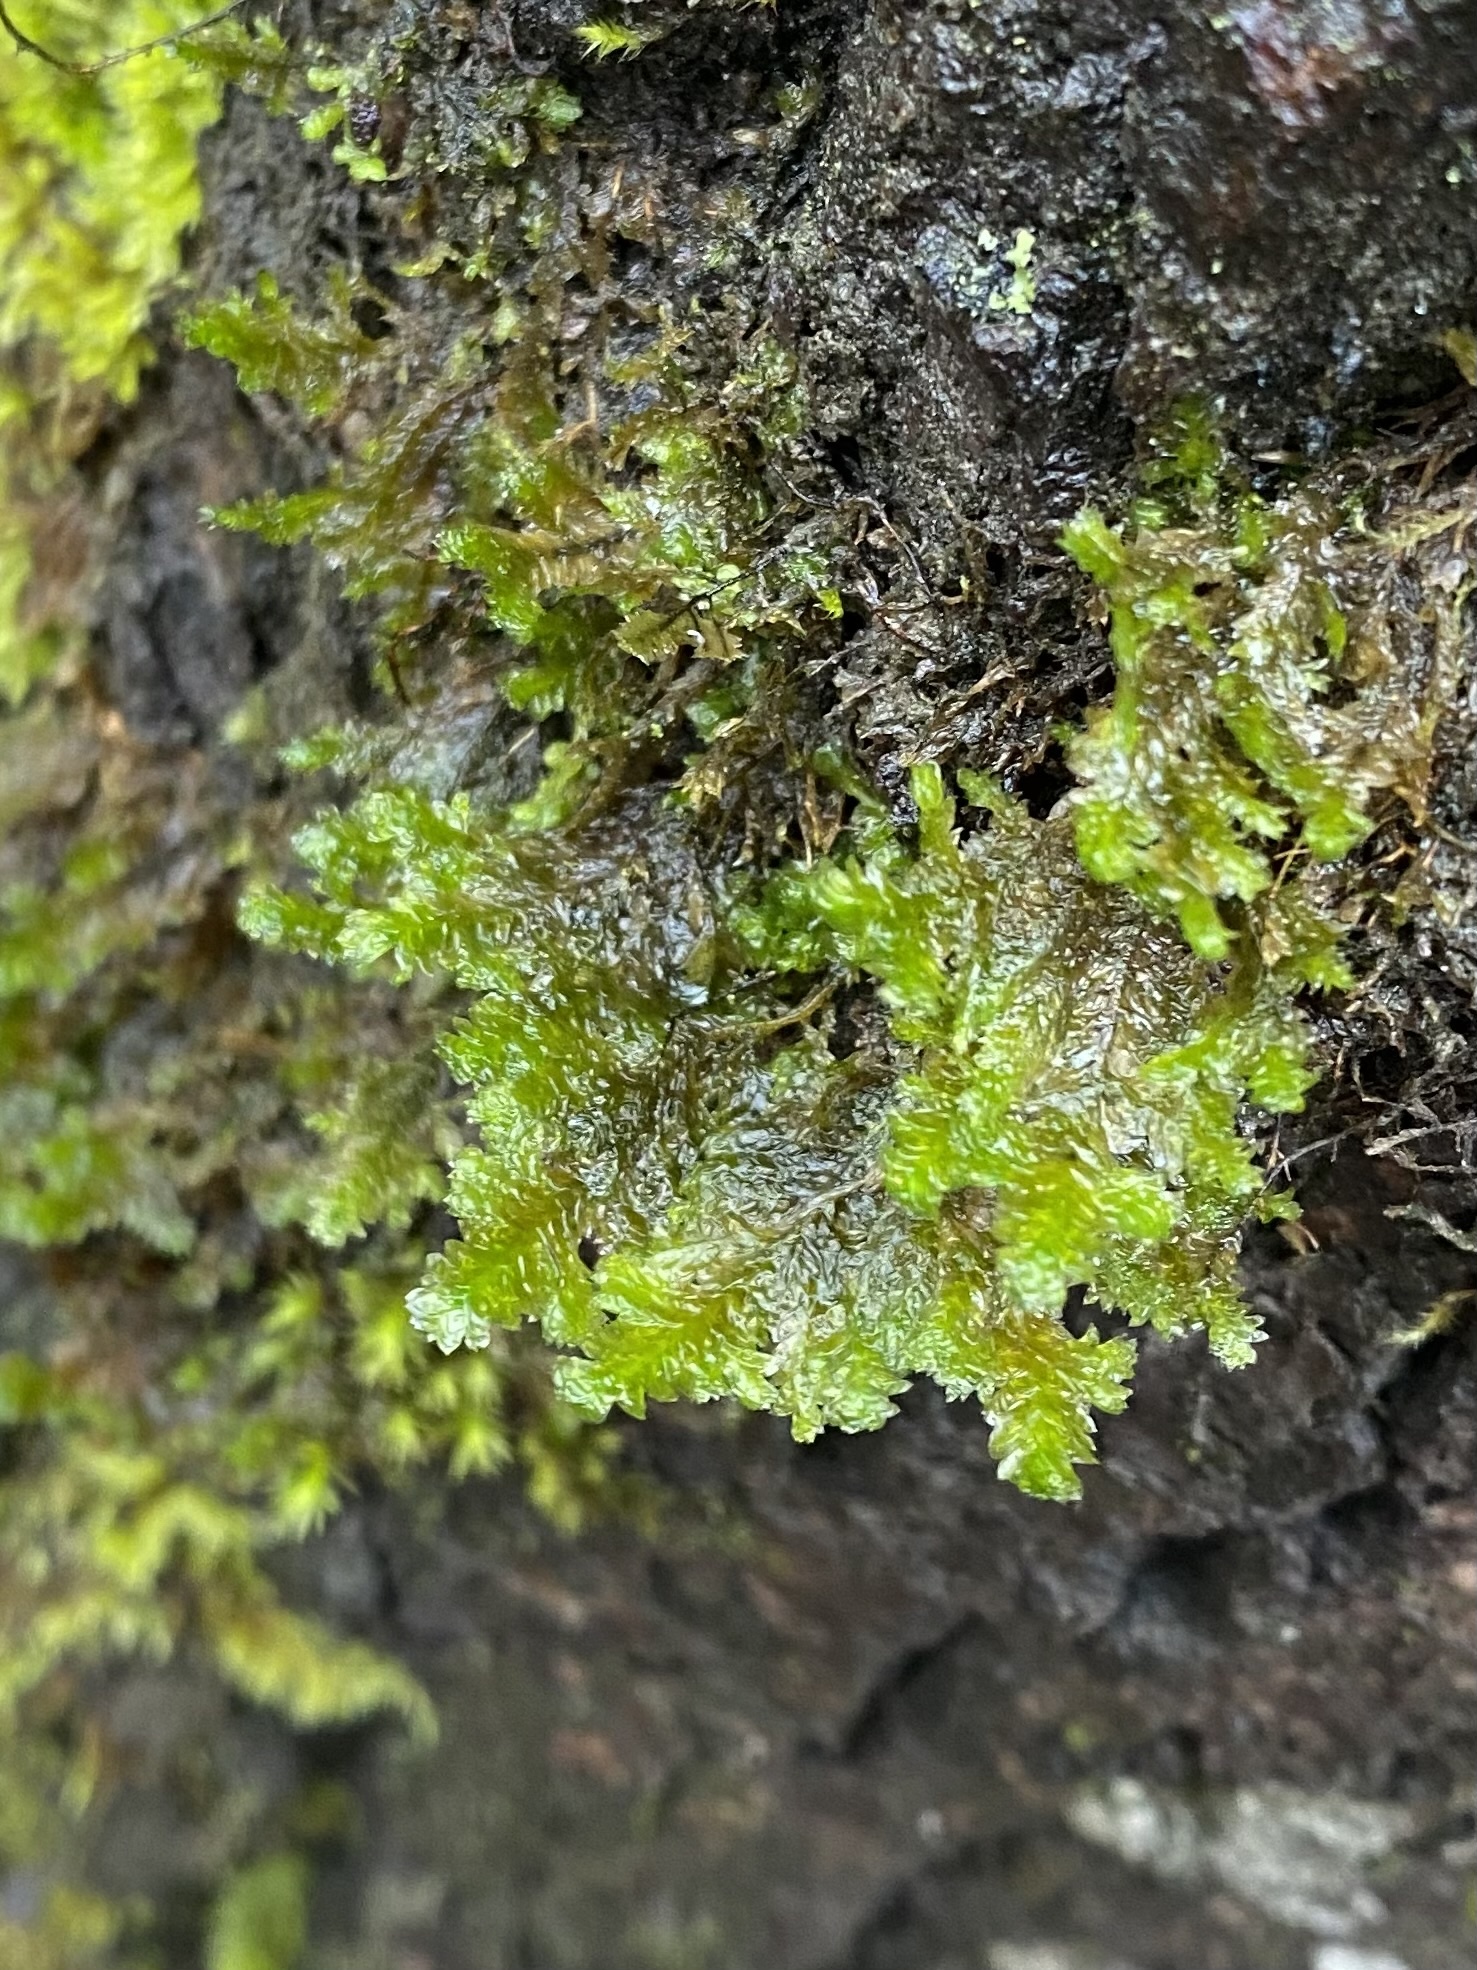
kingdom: Plantae
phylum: Bryophyta
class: Bryopsida
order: Hypnales
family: Neckeraceae
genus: Neckera
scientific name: Neckera pennata
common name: Feathery neckera
